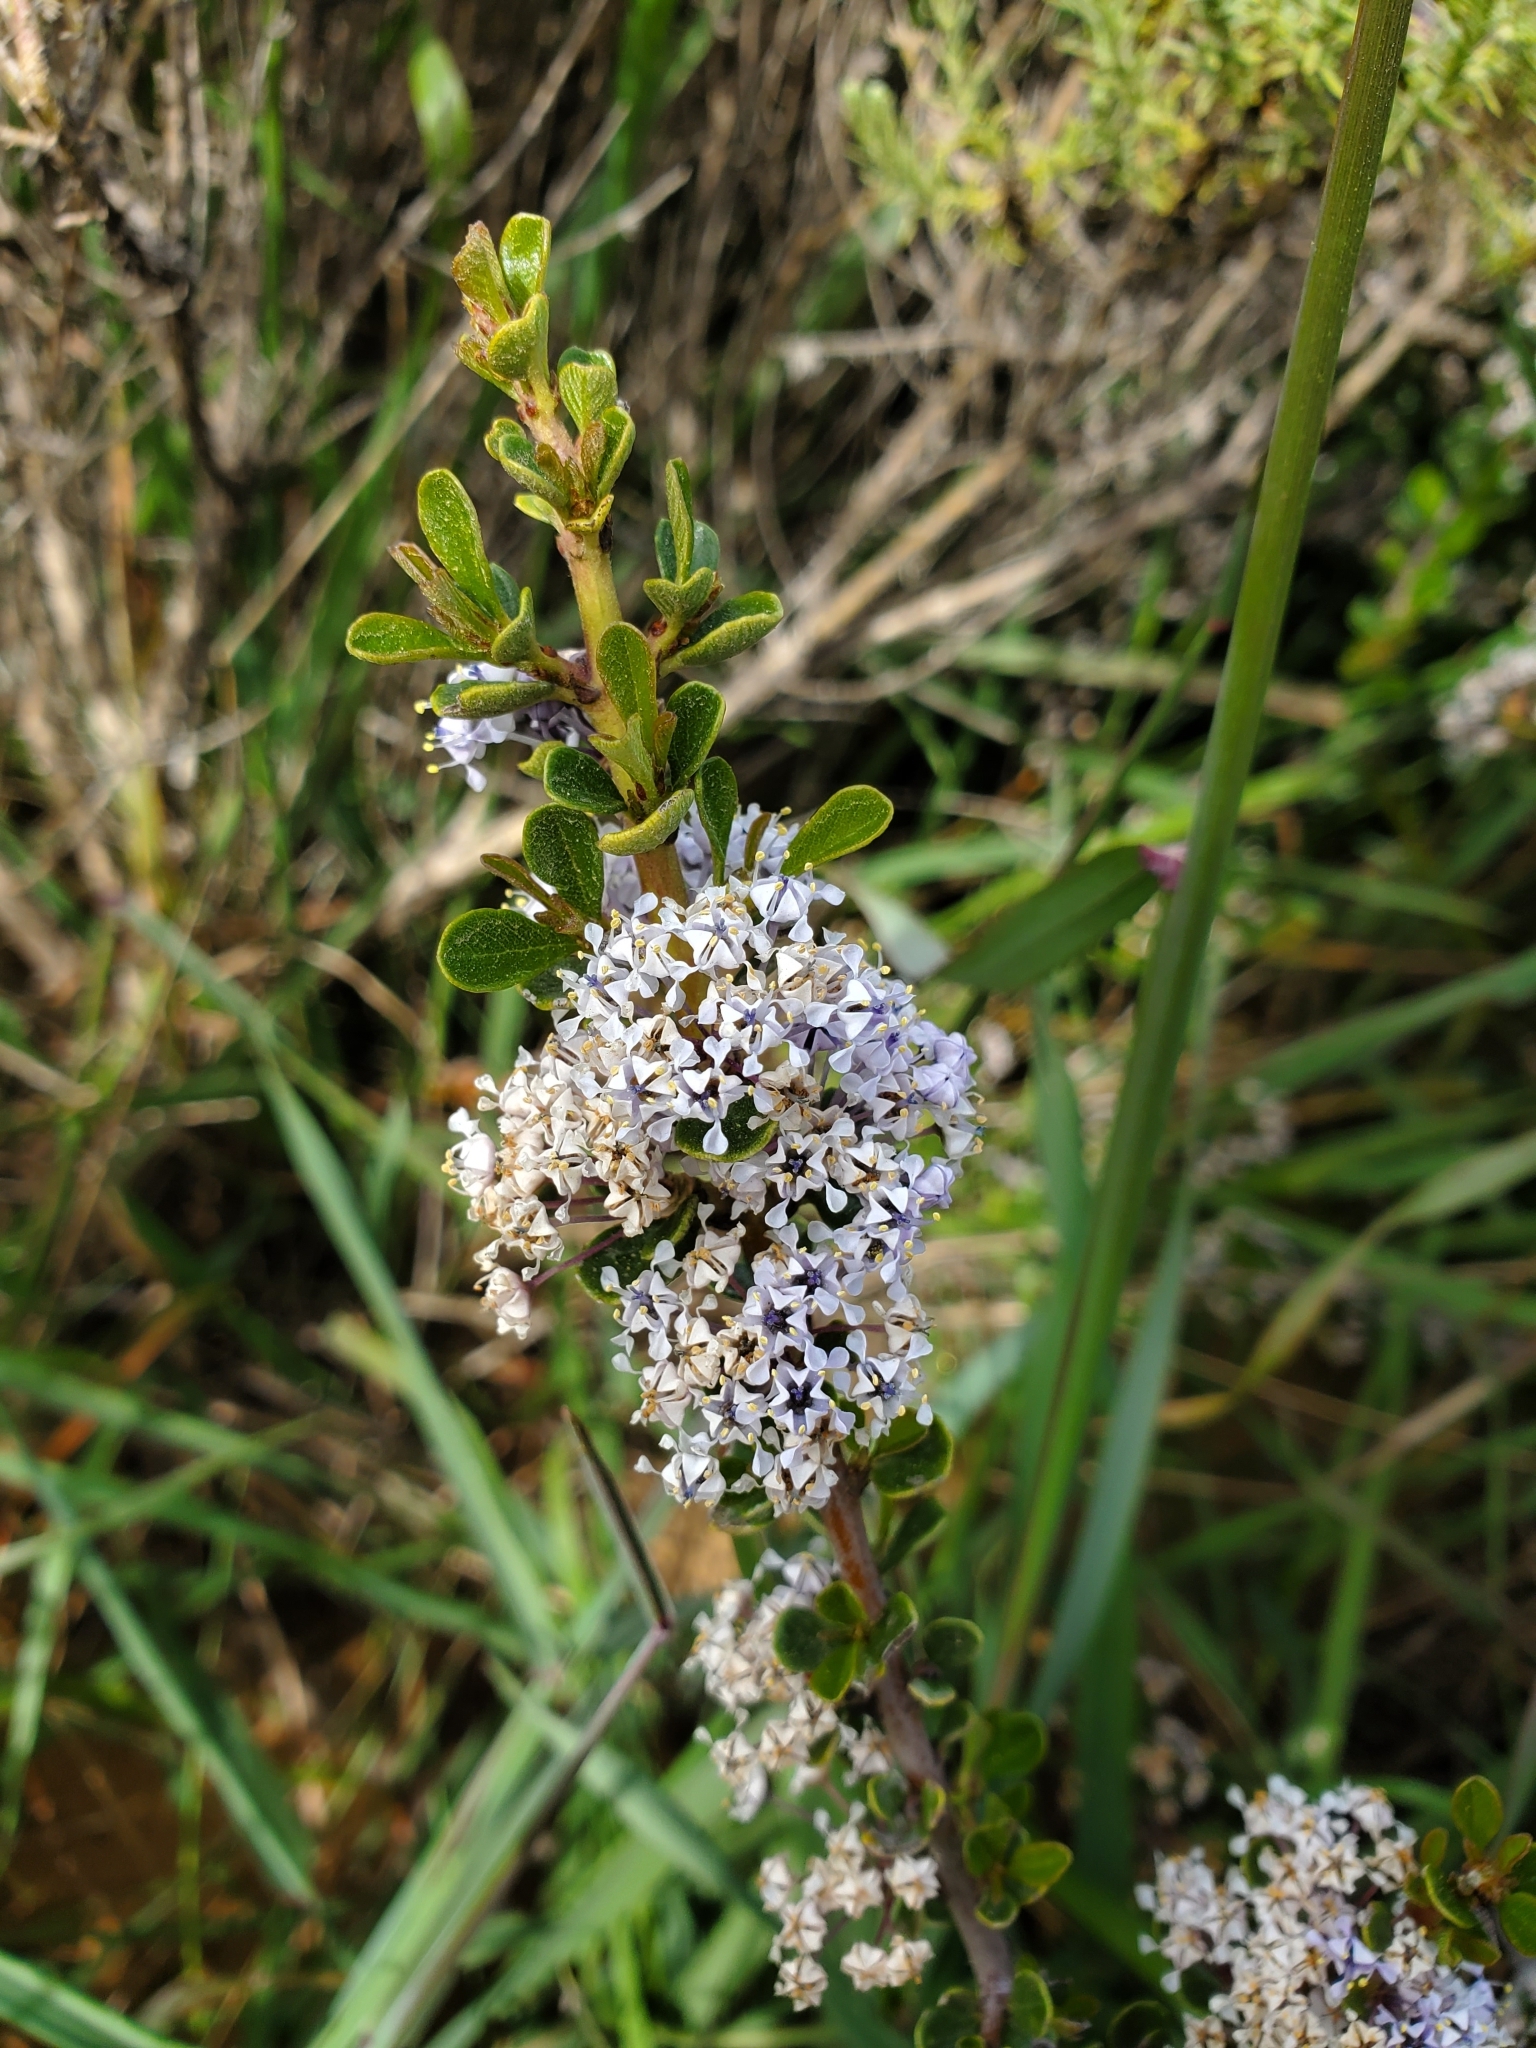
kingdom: Plantae
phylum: Tracheophyta
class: Magnoliopsida
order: Rosales
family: Rhamnaceae
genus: Ceanothus
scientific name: Ceanothus cuneatus
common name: Cuneate ceanothus
